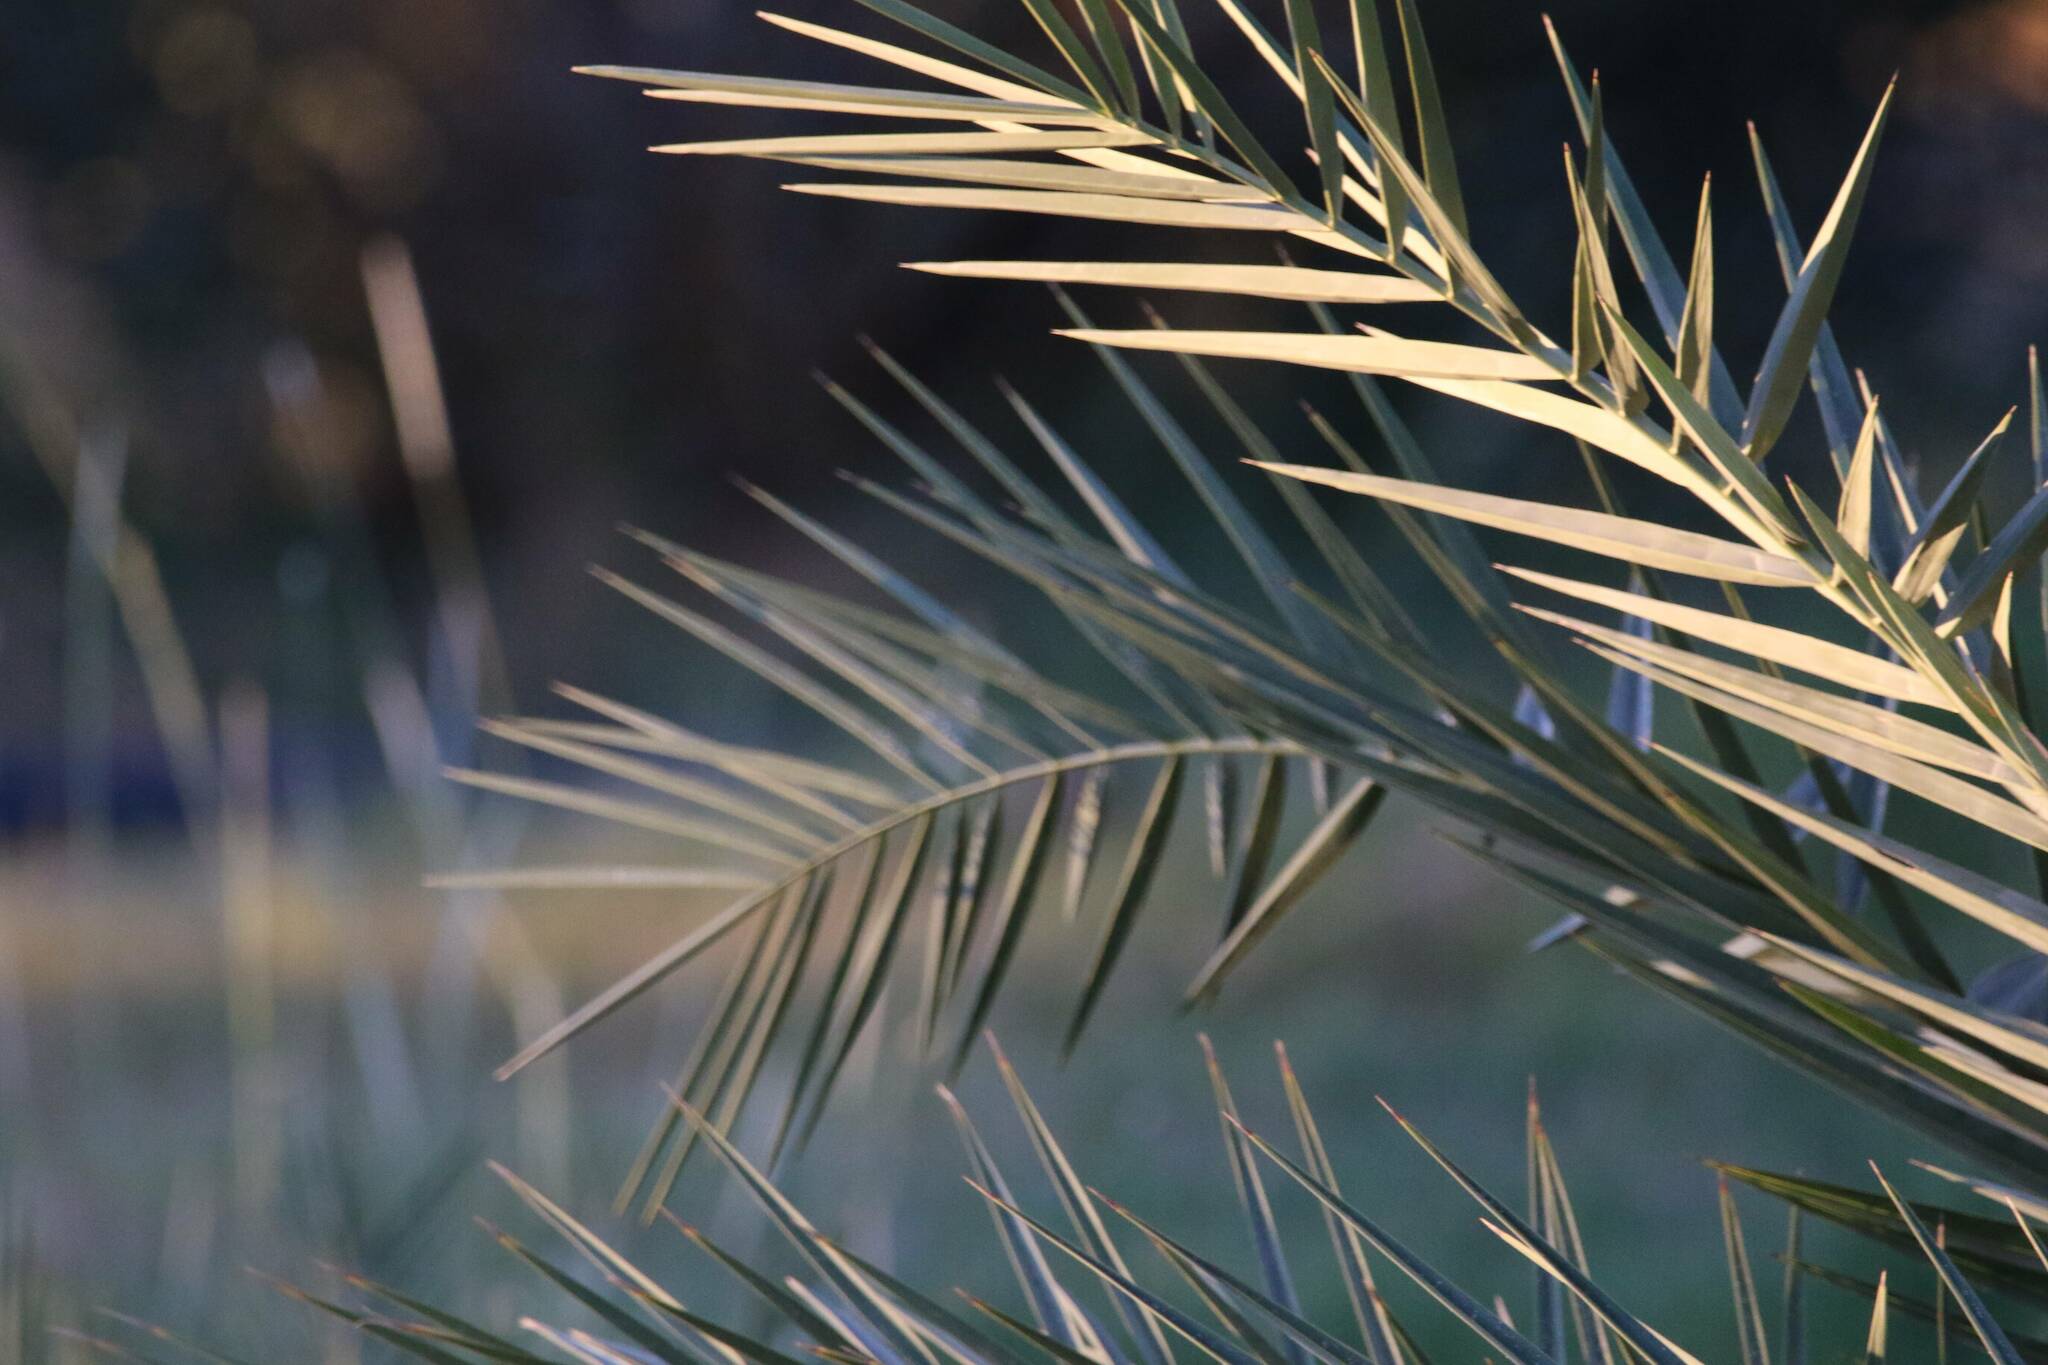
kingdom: Plantae
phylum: Tracheophyta
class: Liliopsida
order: Arecales
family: Arecaceae
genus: Phoenix
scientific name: Phoenix dactylifera
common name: Date palm
